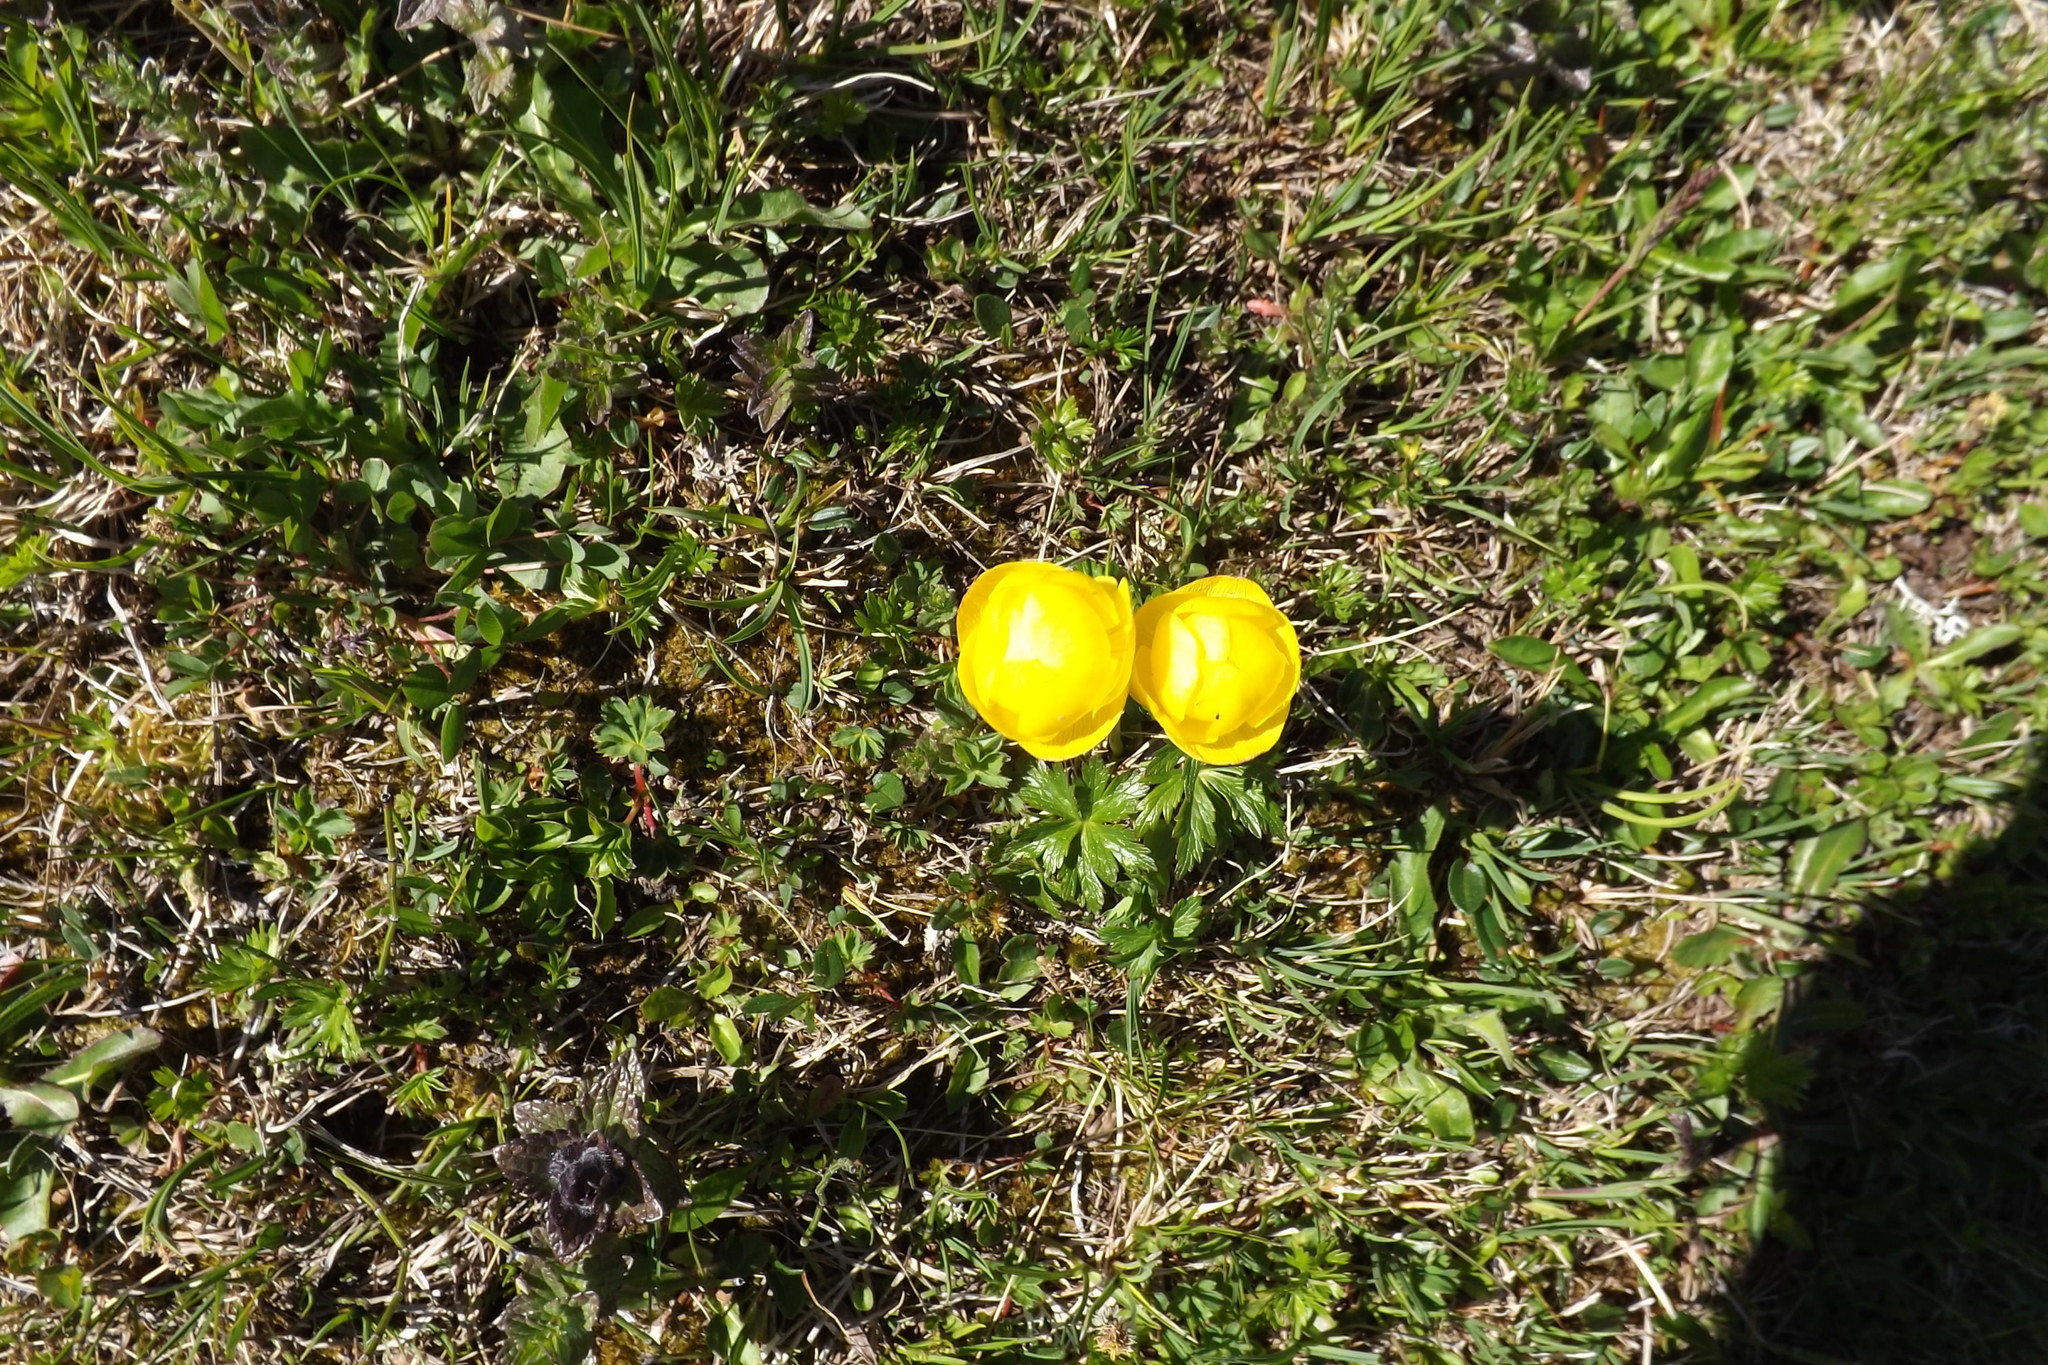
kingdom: Plantae
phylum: Tracheophyta
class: Magnoliopsida
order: Ranunculales
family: Ranunculaceae
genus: Trollius
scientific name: Trollius europaeus
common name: European globeflower
